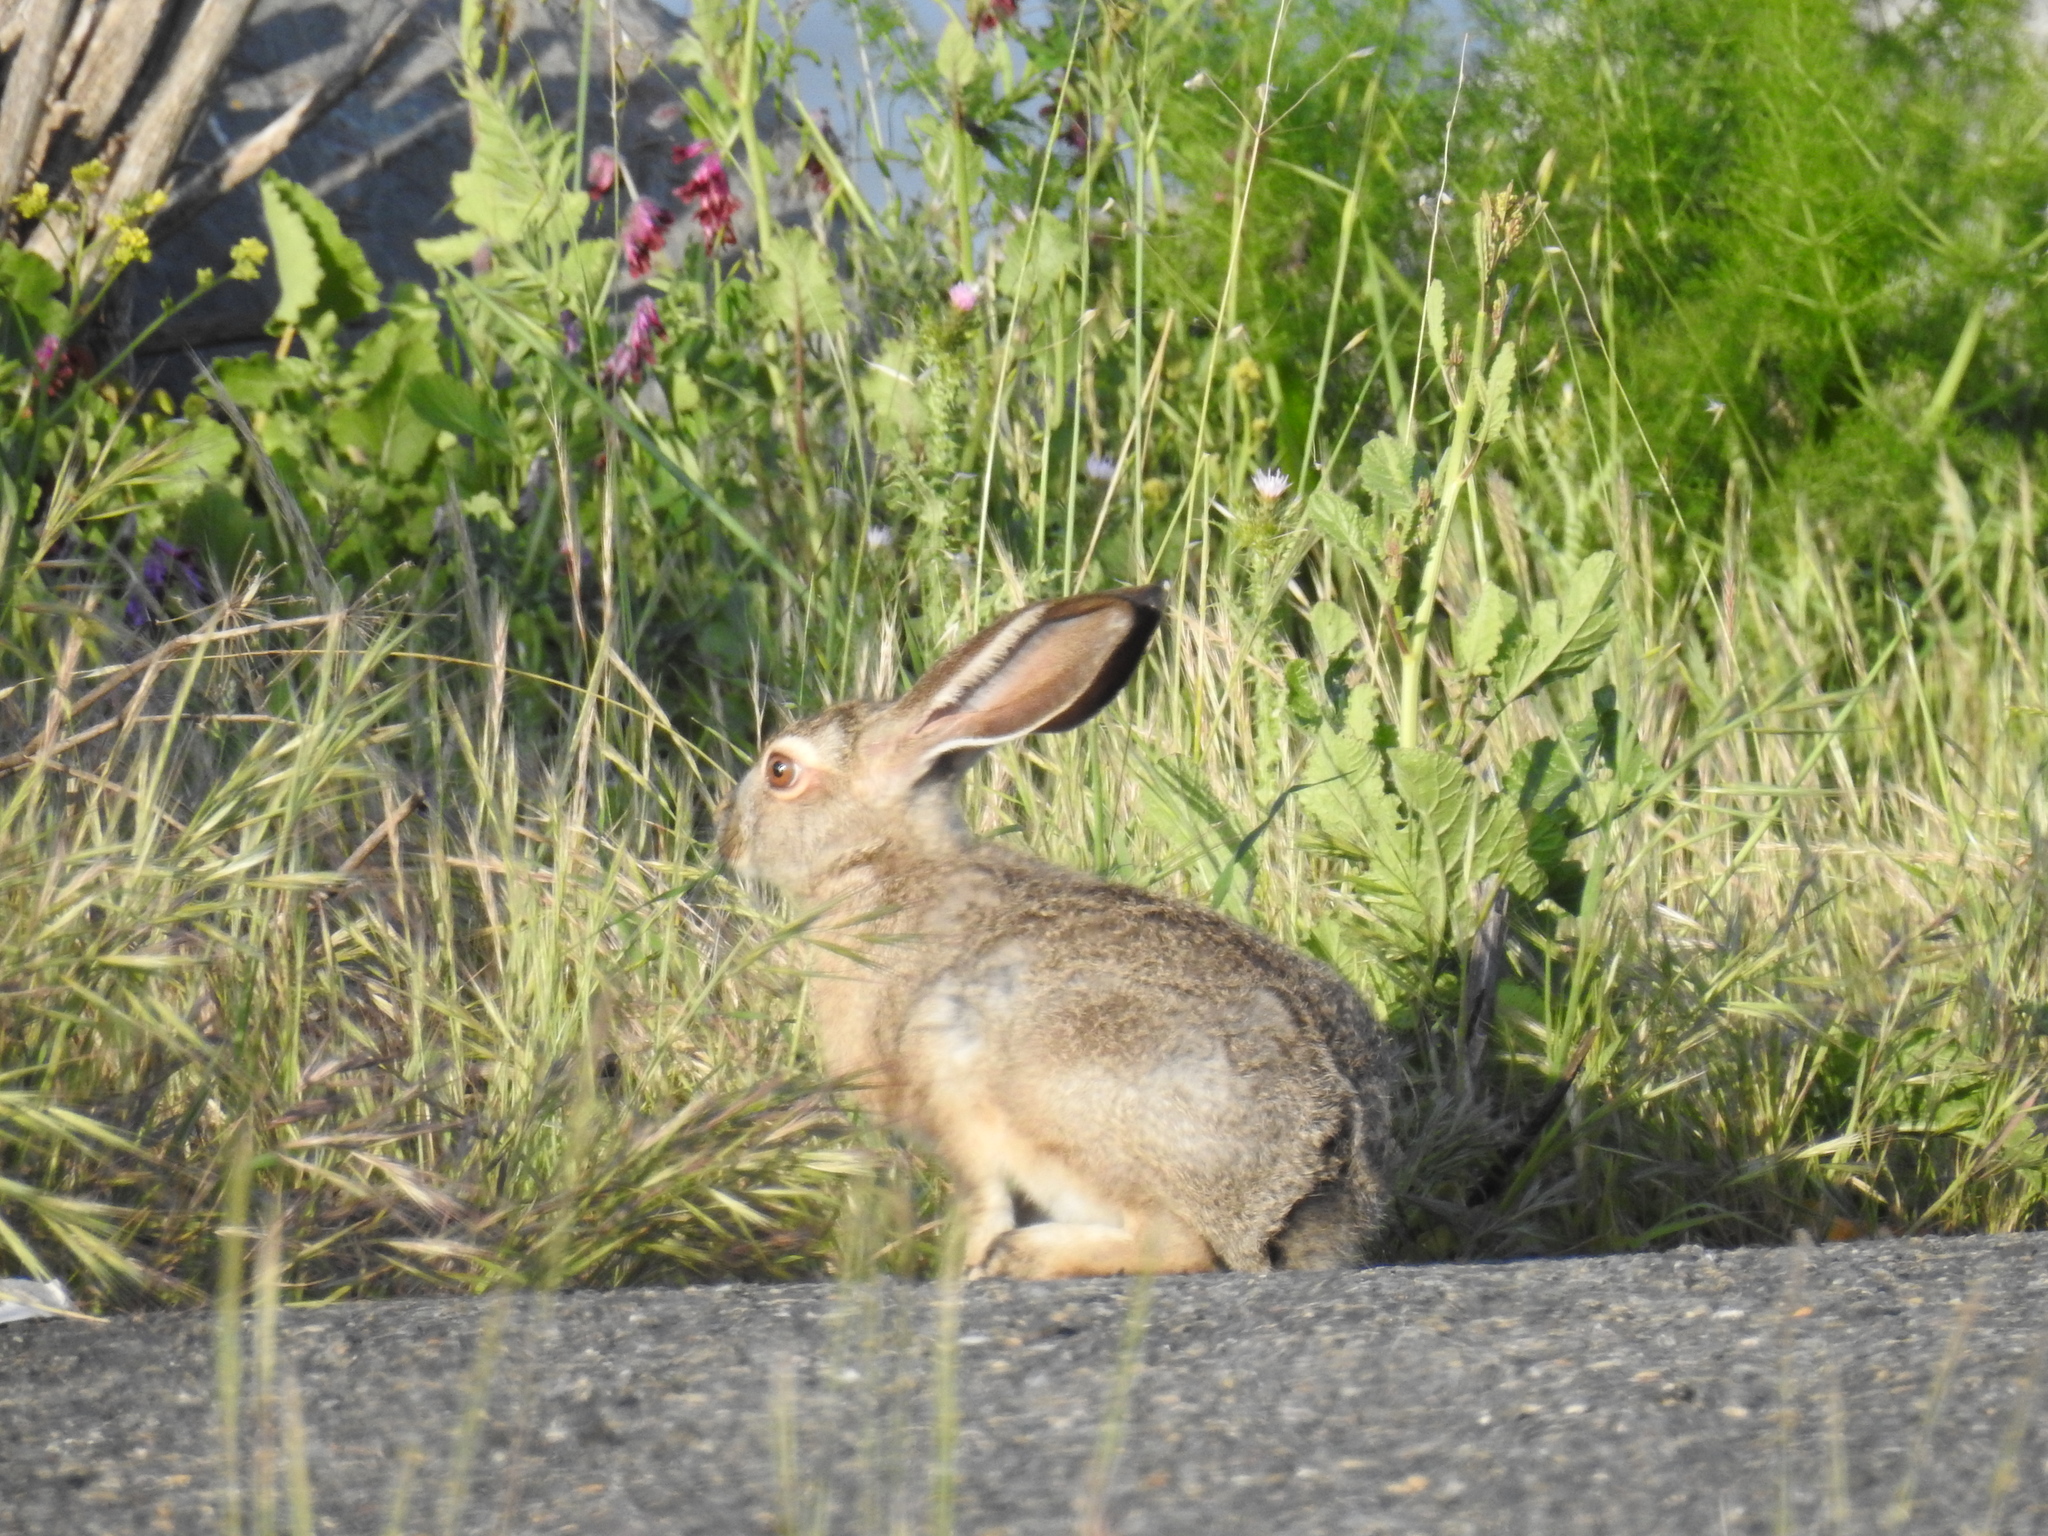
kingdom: Animalia
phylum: Chordata
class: Mammalia
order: Lagomorpha
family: Leporidae
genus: Lepus
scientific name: Lepus californicus
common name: Black-tailed jackrabbit
